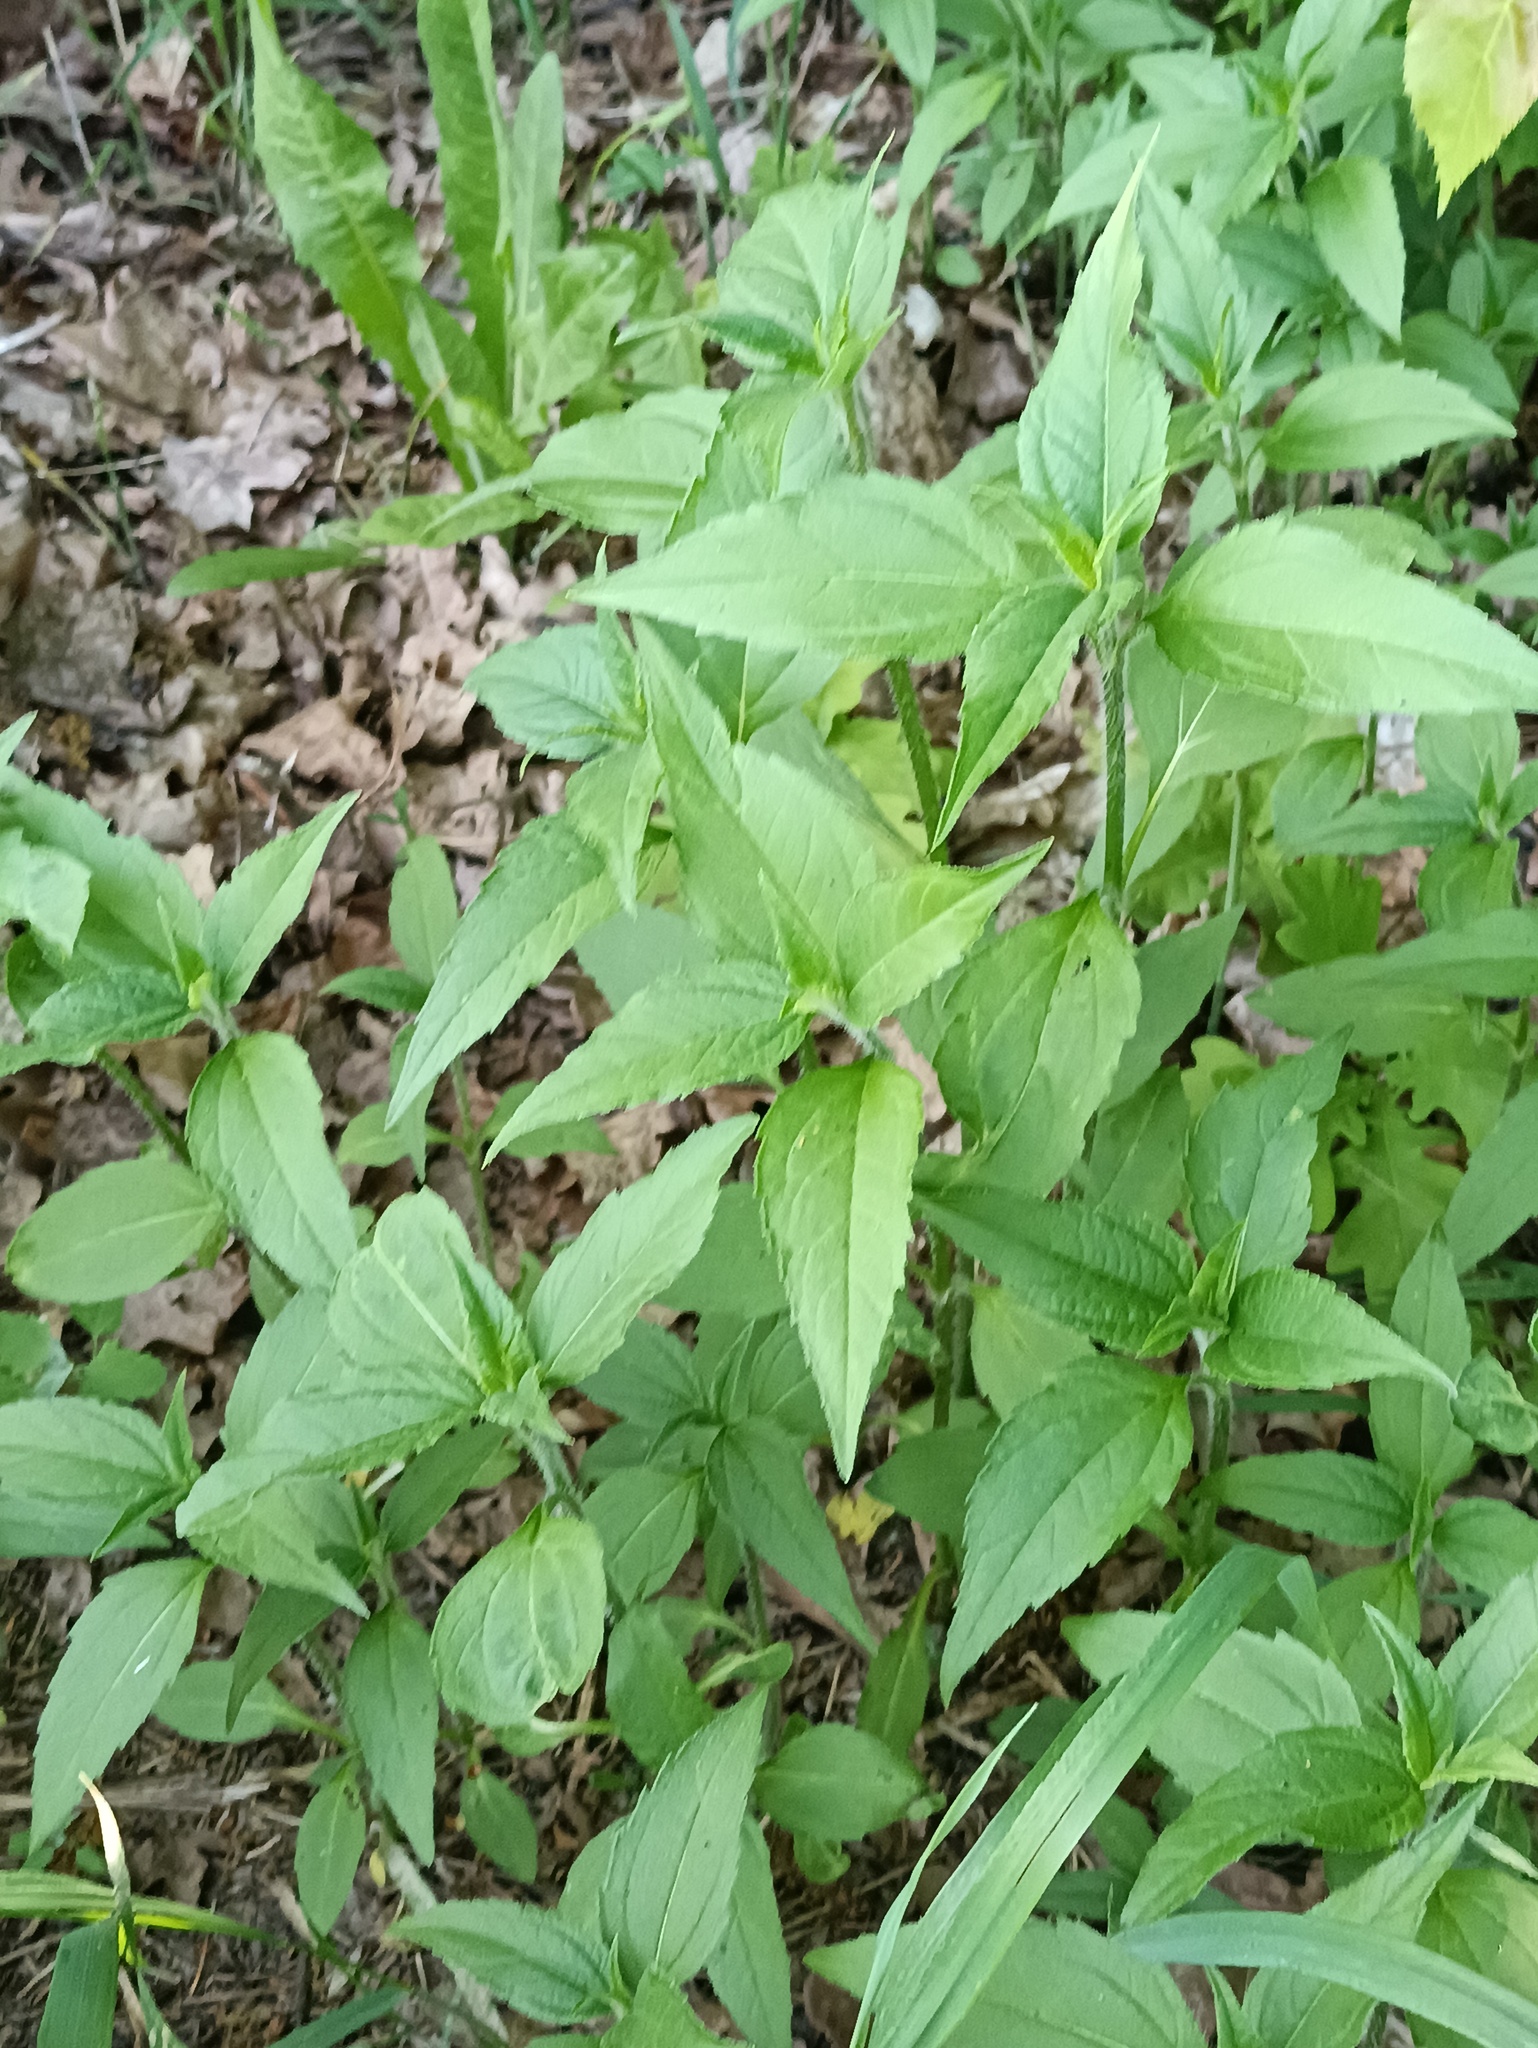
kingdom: Plantae
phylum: Tracheophyta
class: Magnoliopsida
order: Asterales
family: Asteraceae
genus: Helianthus
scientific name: Helianthus tuberosus
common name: Jerusalem artichoke
